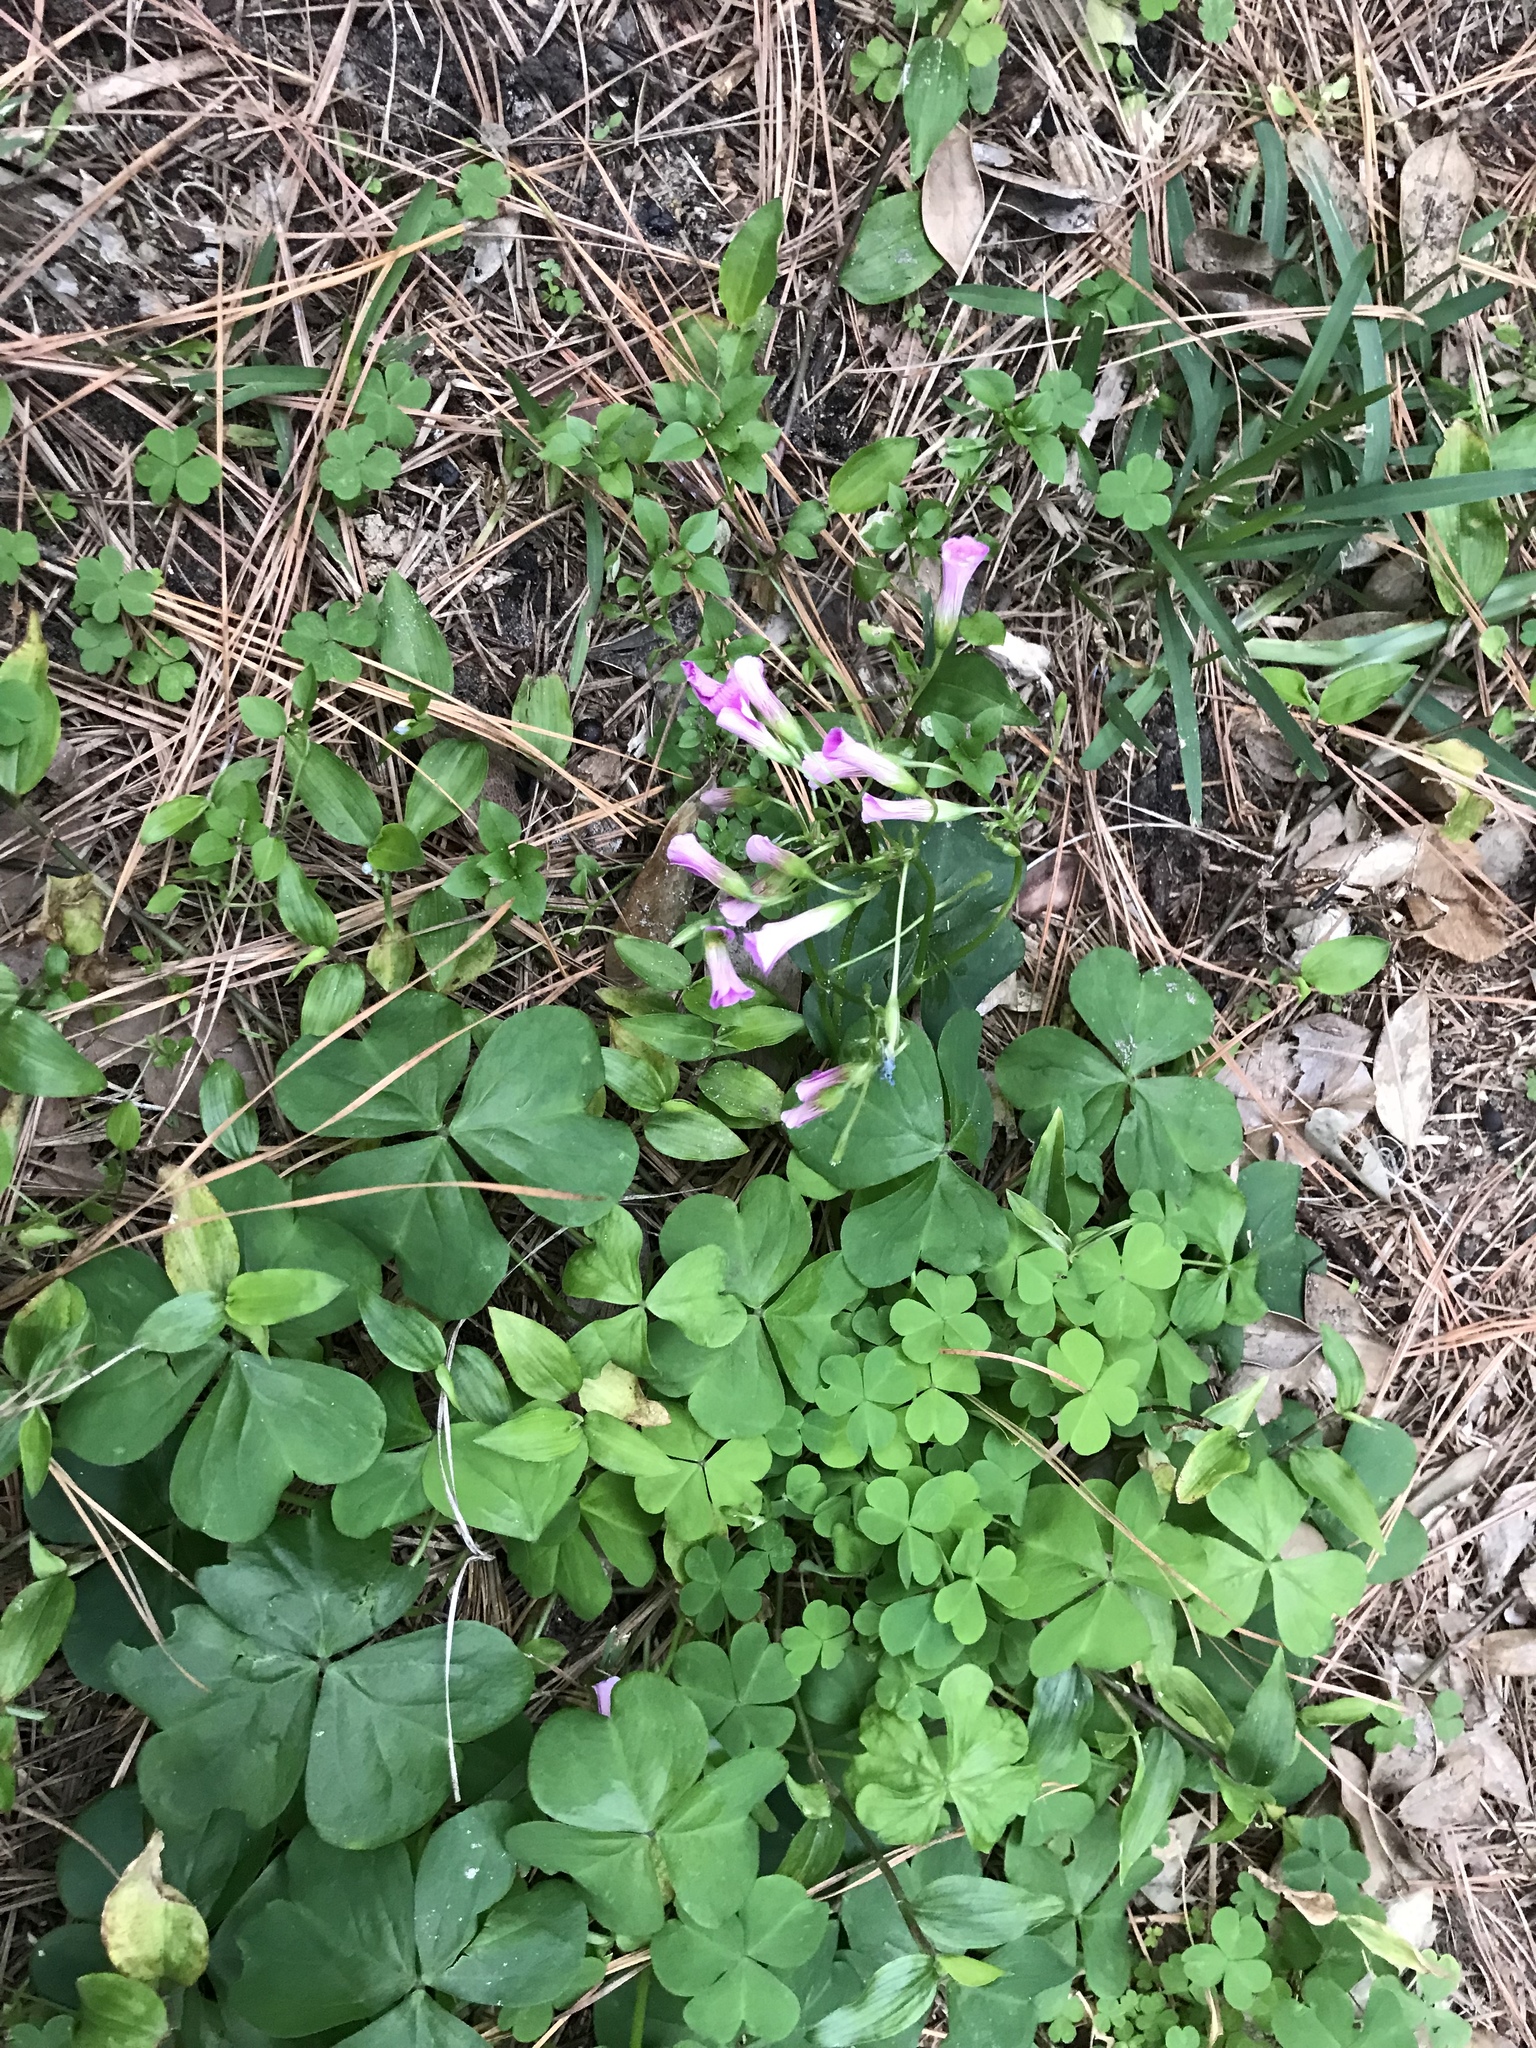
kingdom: Plantae
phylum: Tracheophyta
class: Magnoliopsida
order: Oxalidales
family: Oxalidaceae
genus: Oxalis
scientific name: Oxalis debilis
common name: Large-flowered pink-sorrel
